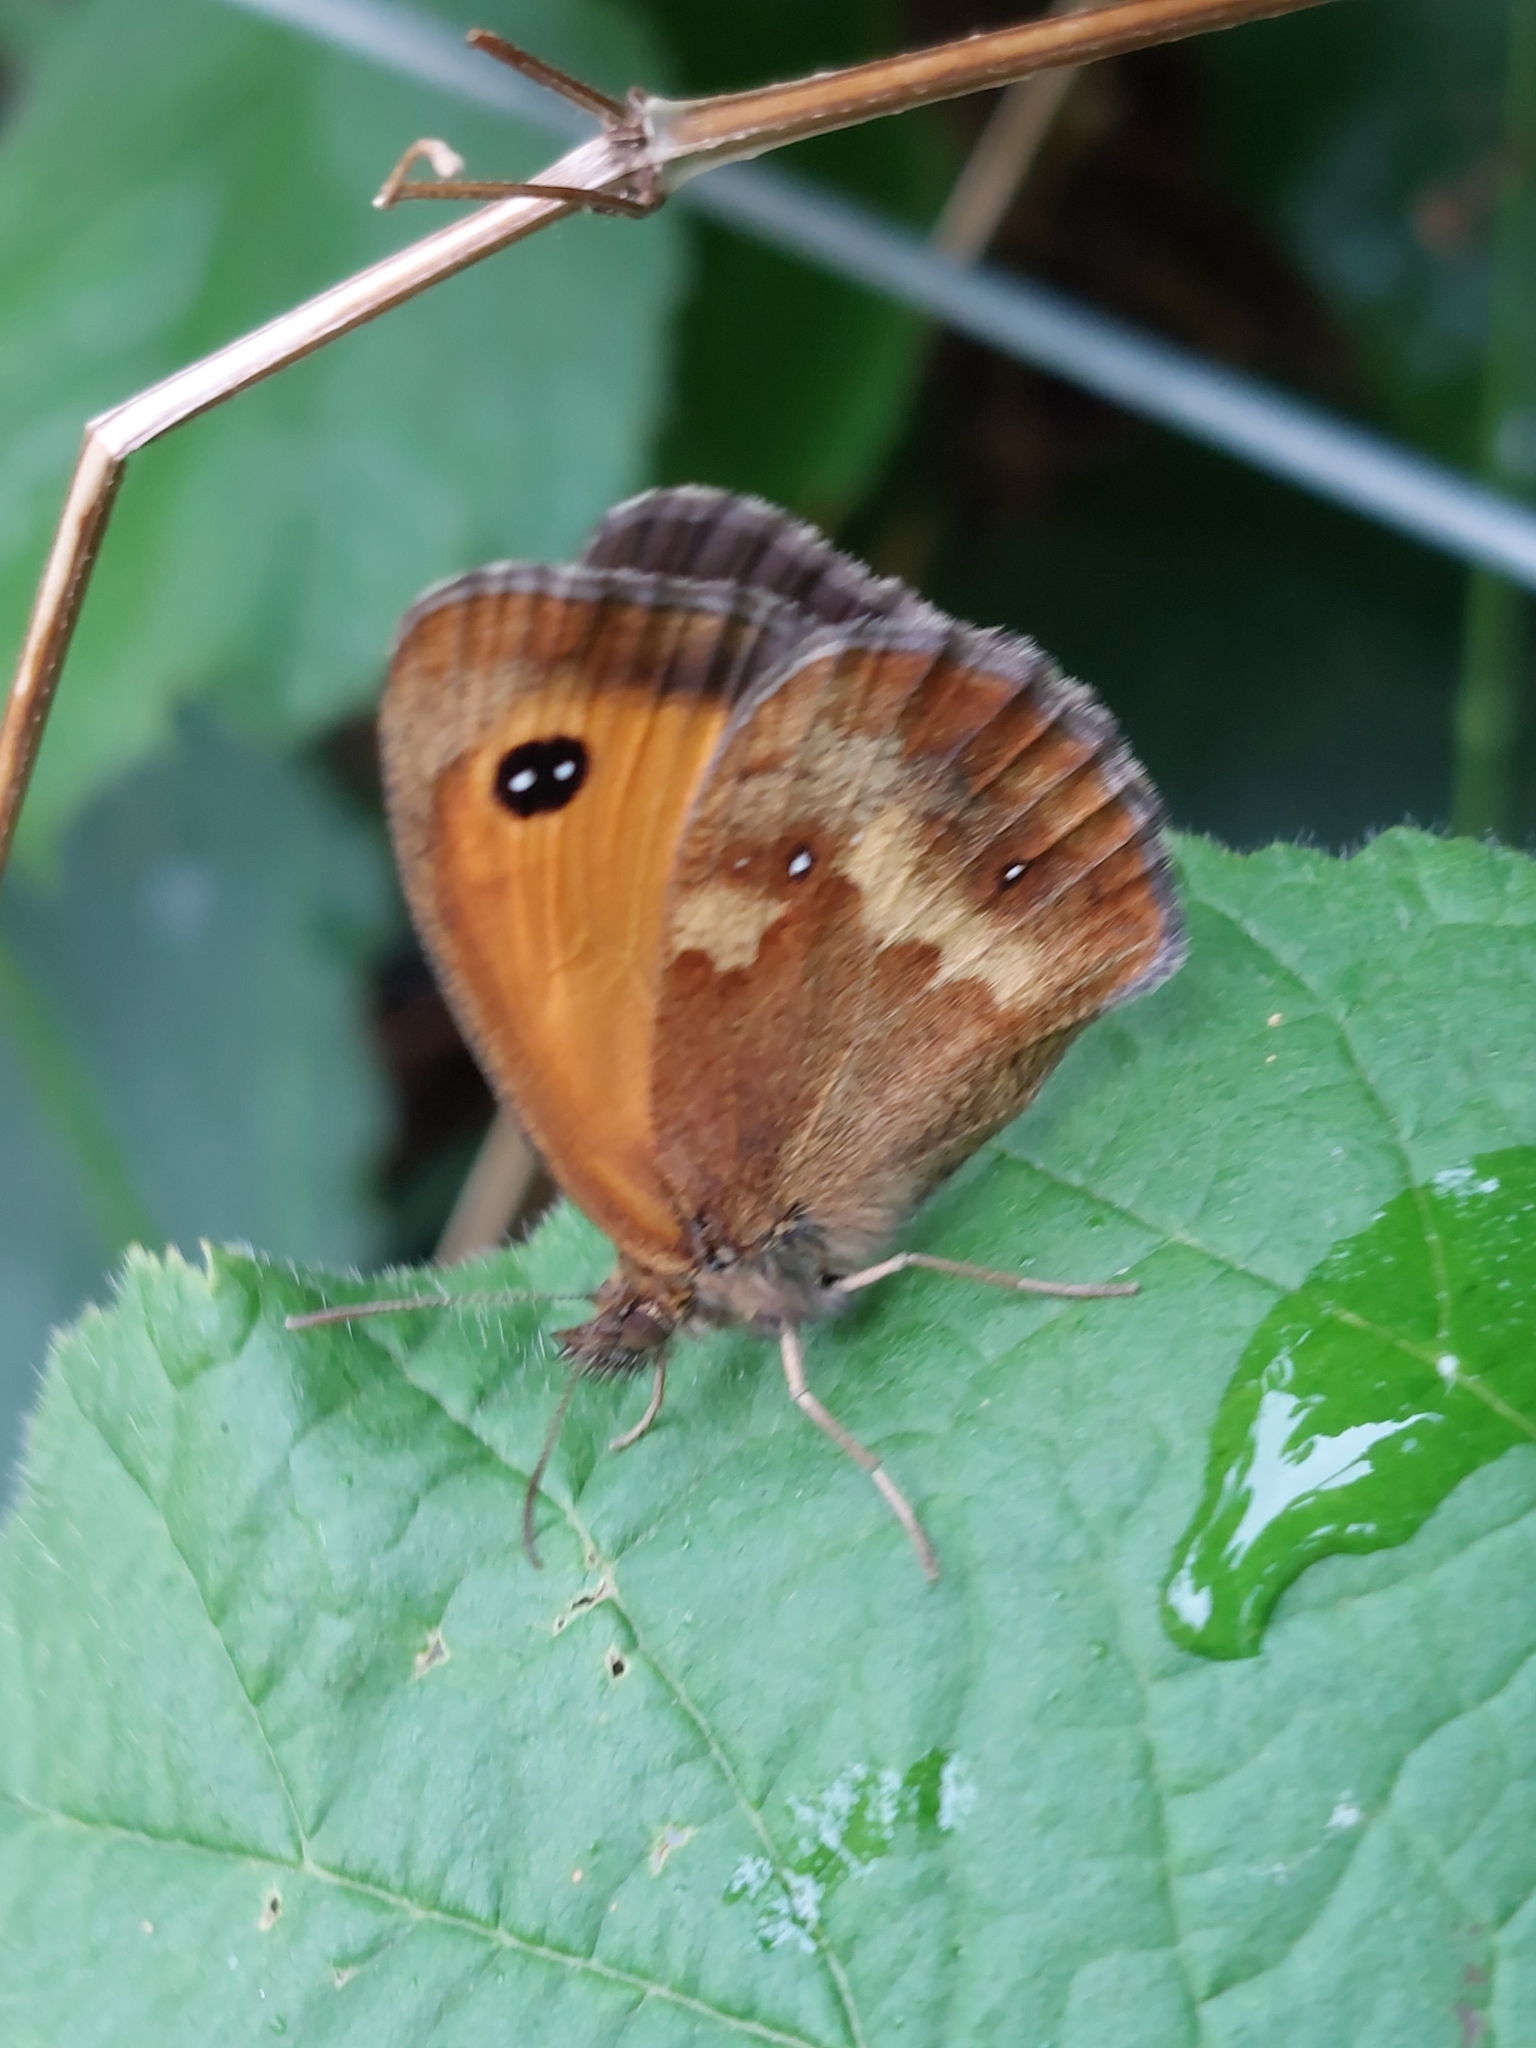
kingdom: Animalia
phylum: Arthropoda
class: Insecta
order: Lepidoptera
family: Nymphalidae
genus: Pyronia
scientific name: Pyronia tithonus
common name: Gatekeeper
